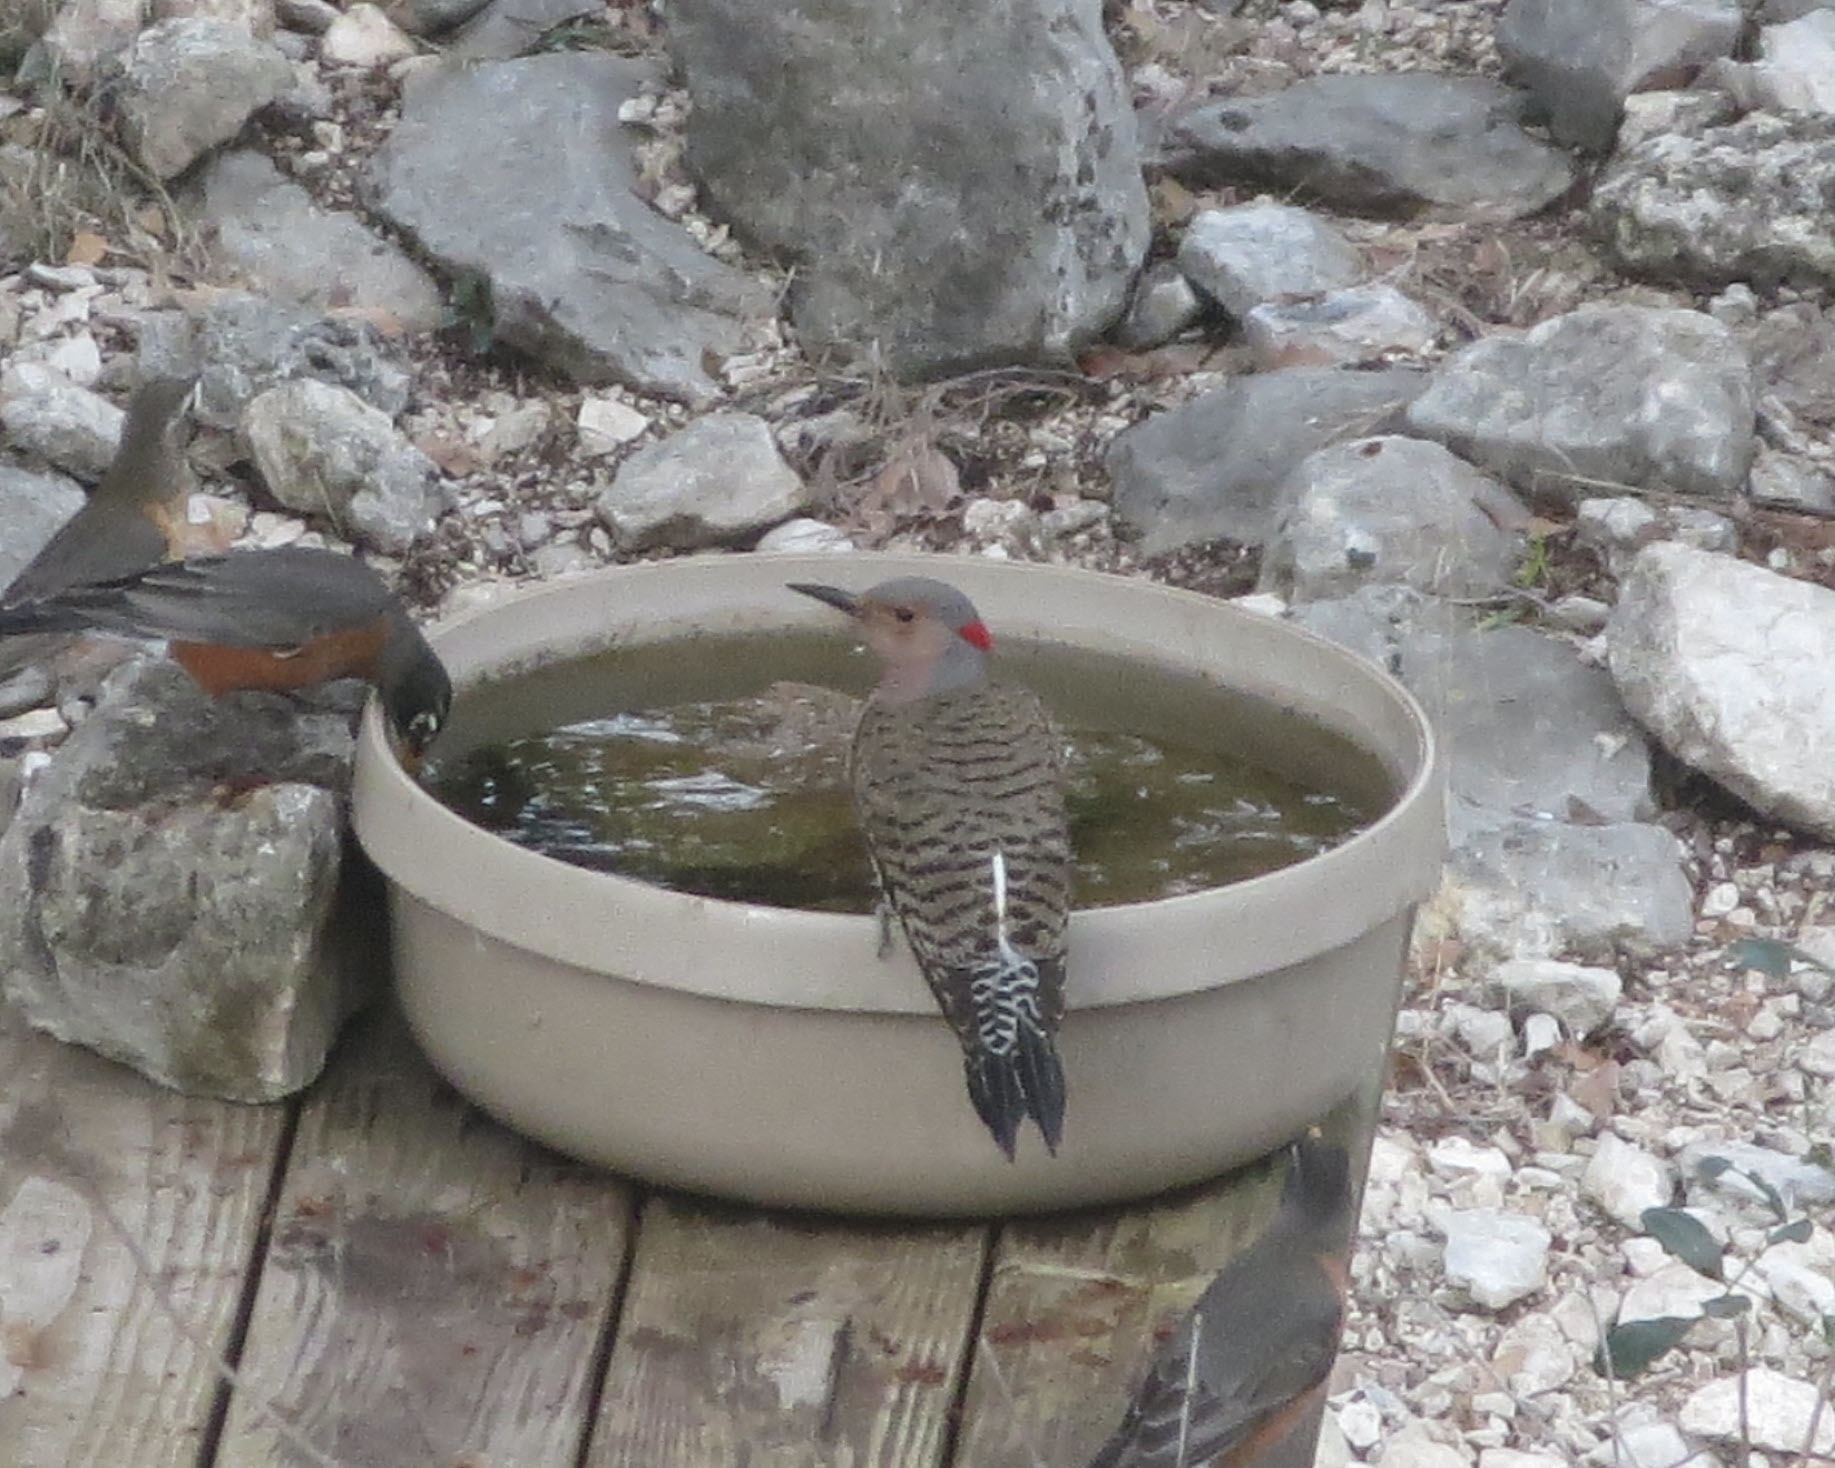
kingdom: Animalia
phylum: Chordata
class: Aves
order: Piciformes
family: Picidae
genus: Colaptes
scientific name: Colaptes auratus
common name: Northern flicker
